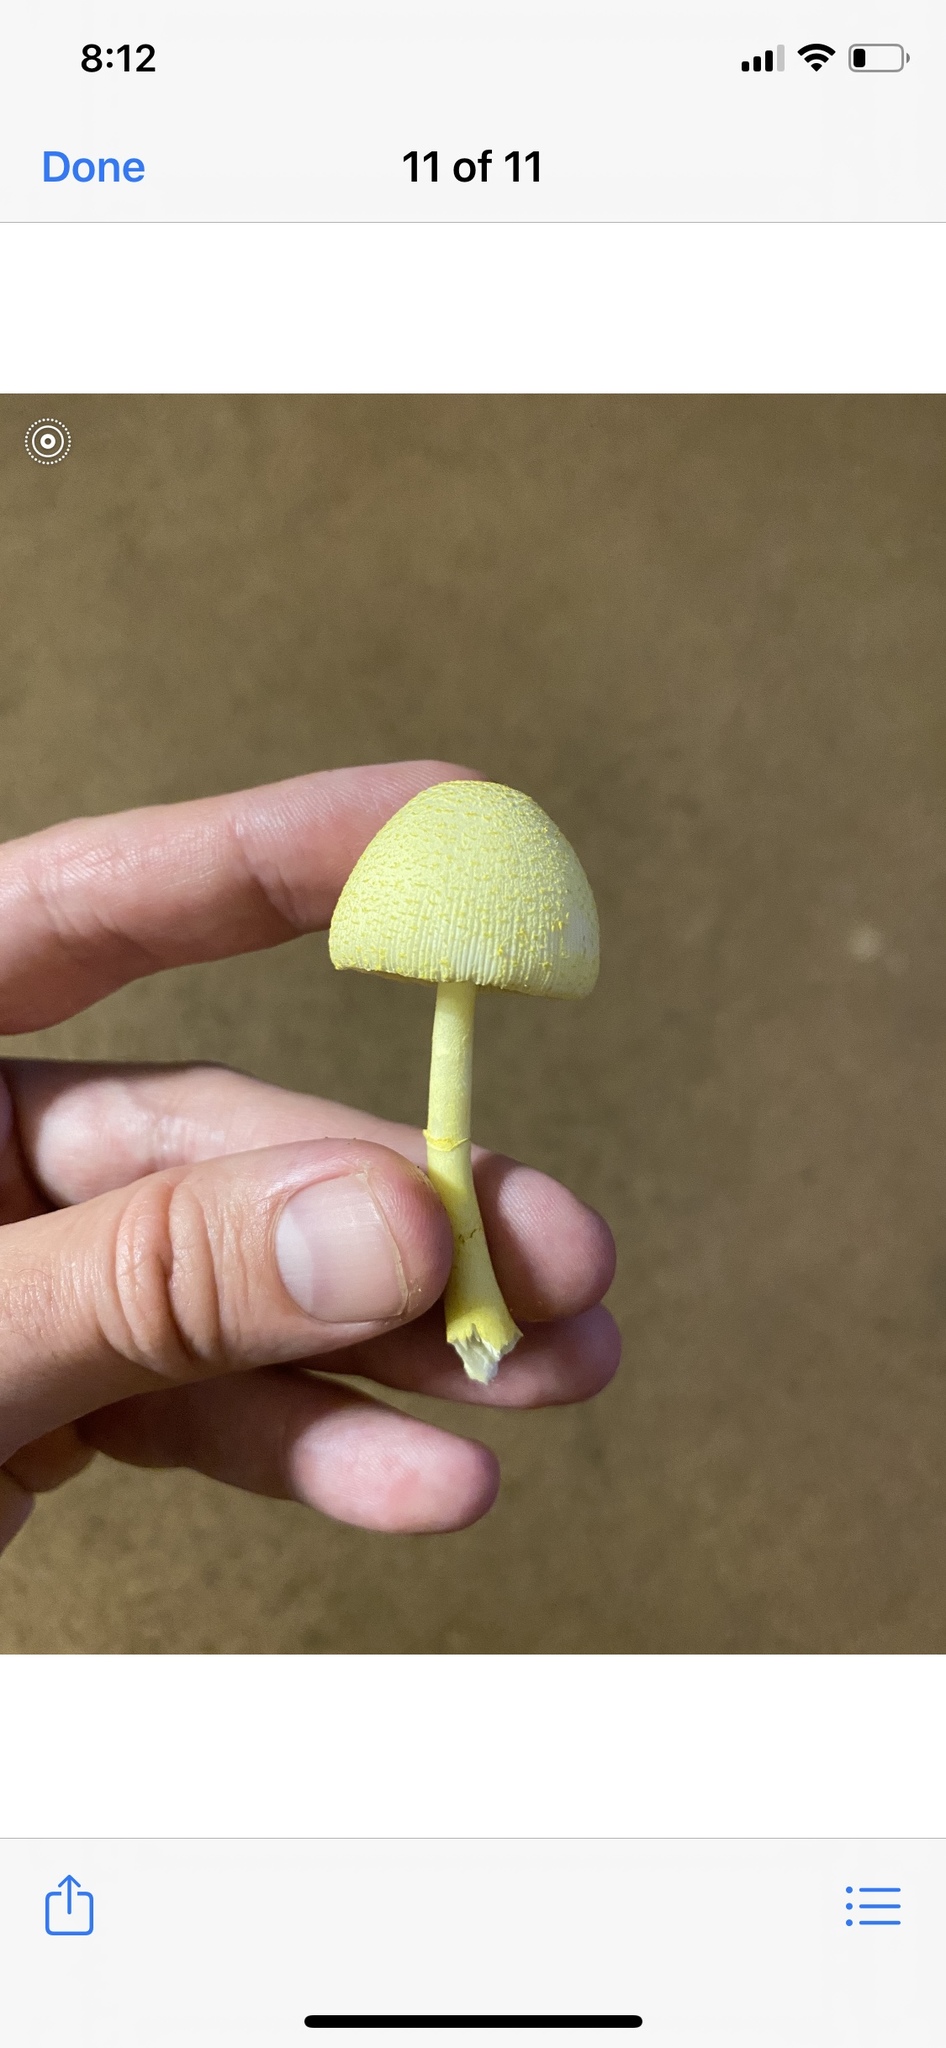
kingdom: Fungi
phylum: Basidiomycota
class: Agaricomycetes
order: Agaricales
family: Agaricaceae
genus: Leucocoprinus
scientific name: Leucocoprinus birnbaumii
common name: Plantpot dapperling
